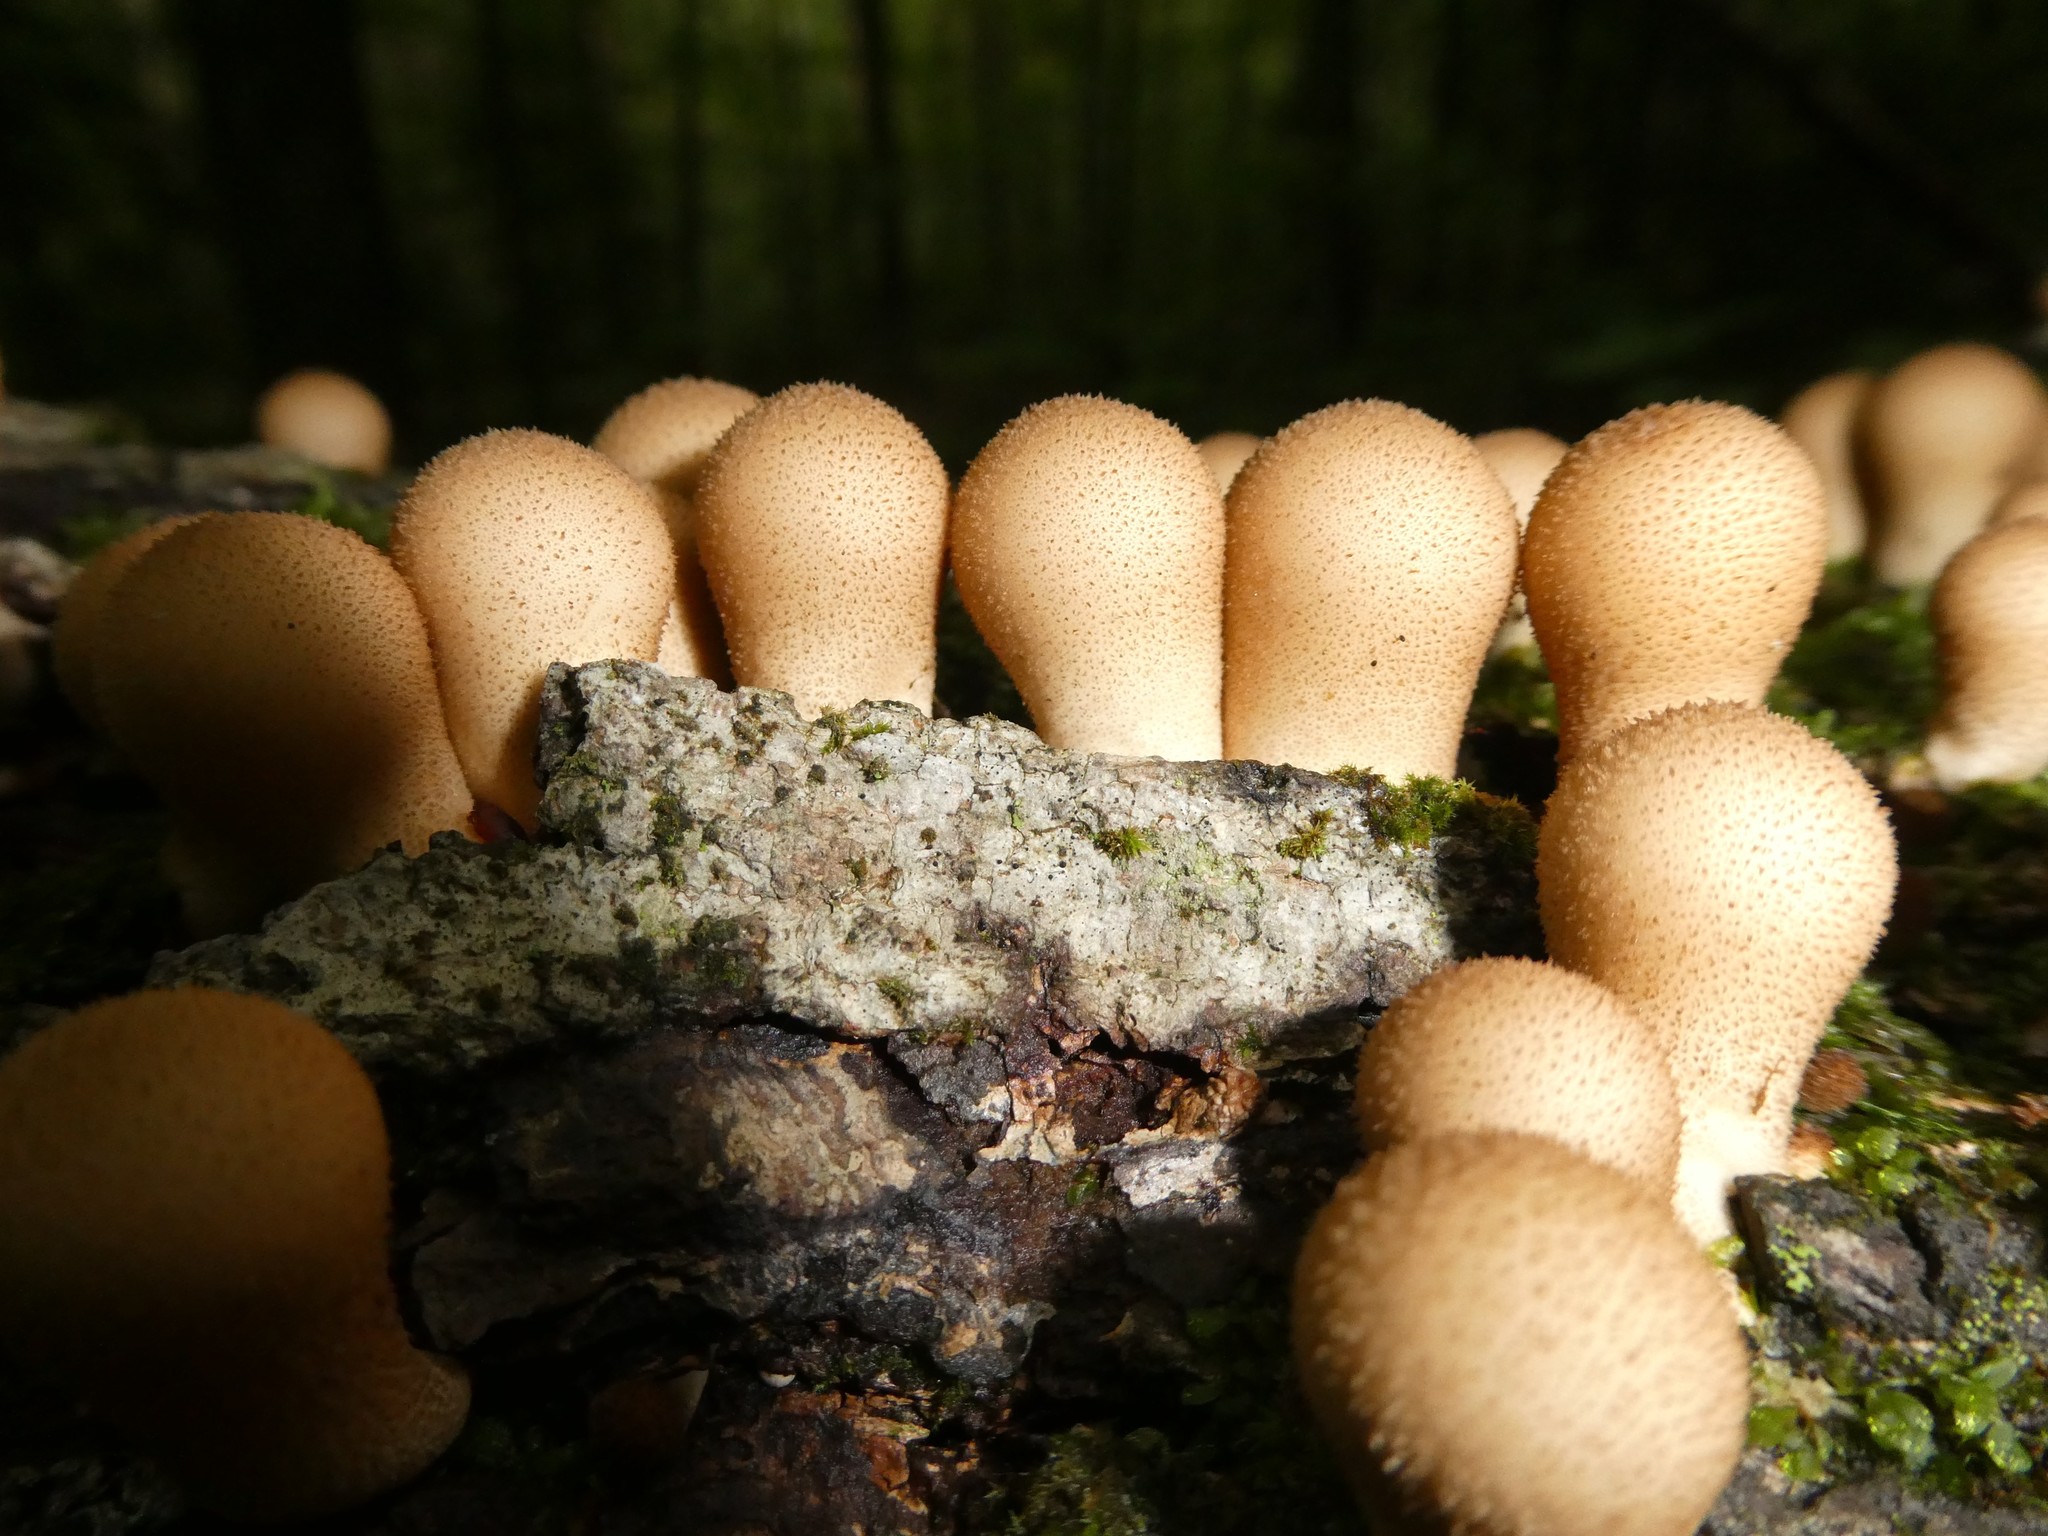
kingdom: Fungi
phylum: Basidiomycota
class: Agaricomycetes
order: Agaricales
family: Lycoperdaceae
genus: Apioperdon
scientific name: Apioperdon pyriforme
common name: Pear-shaped puffball
